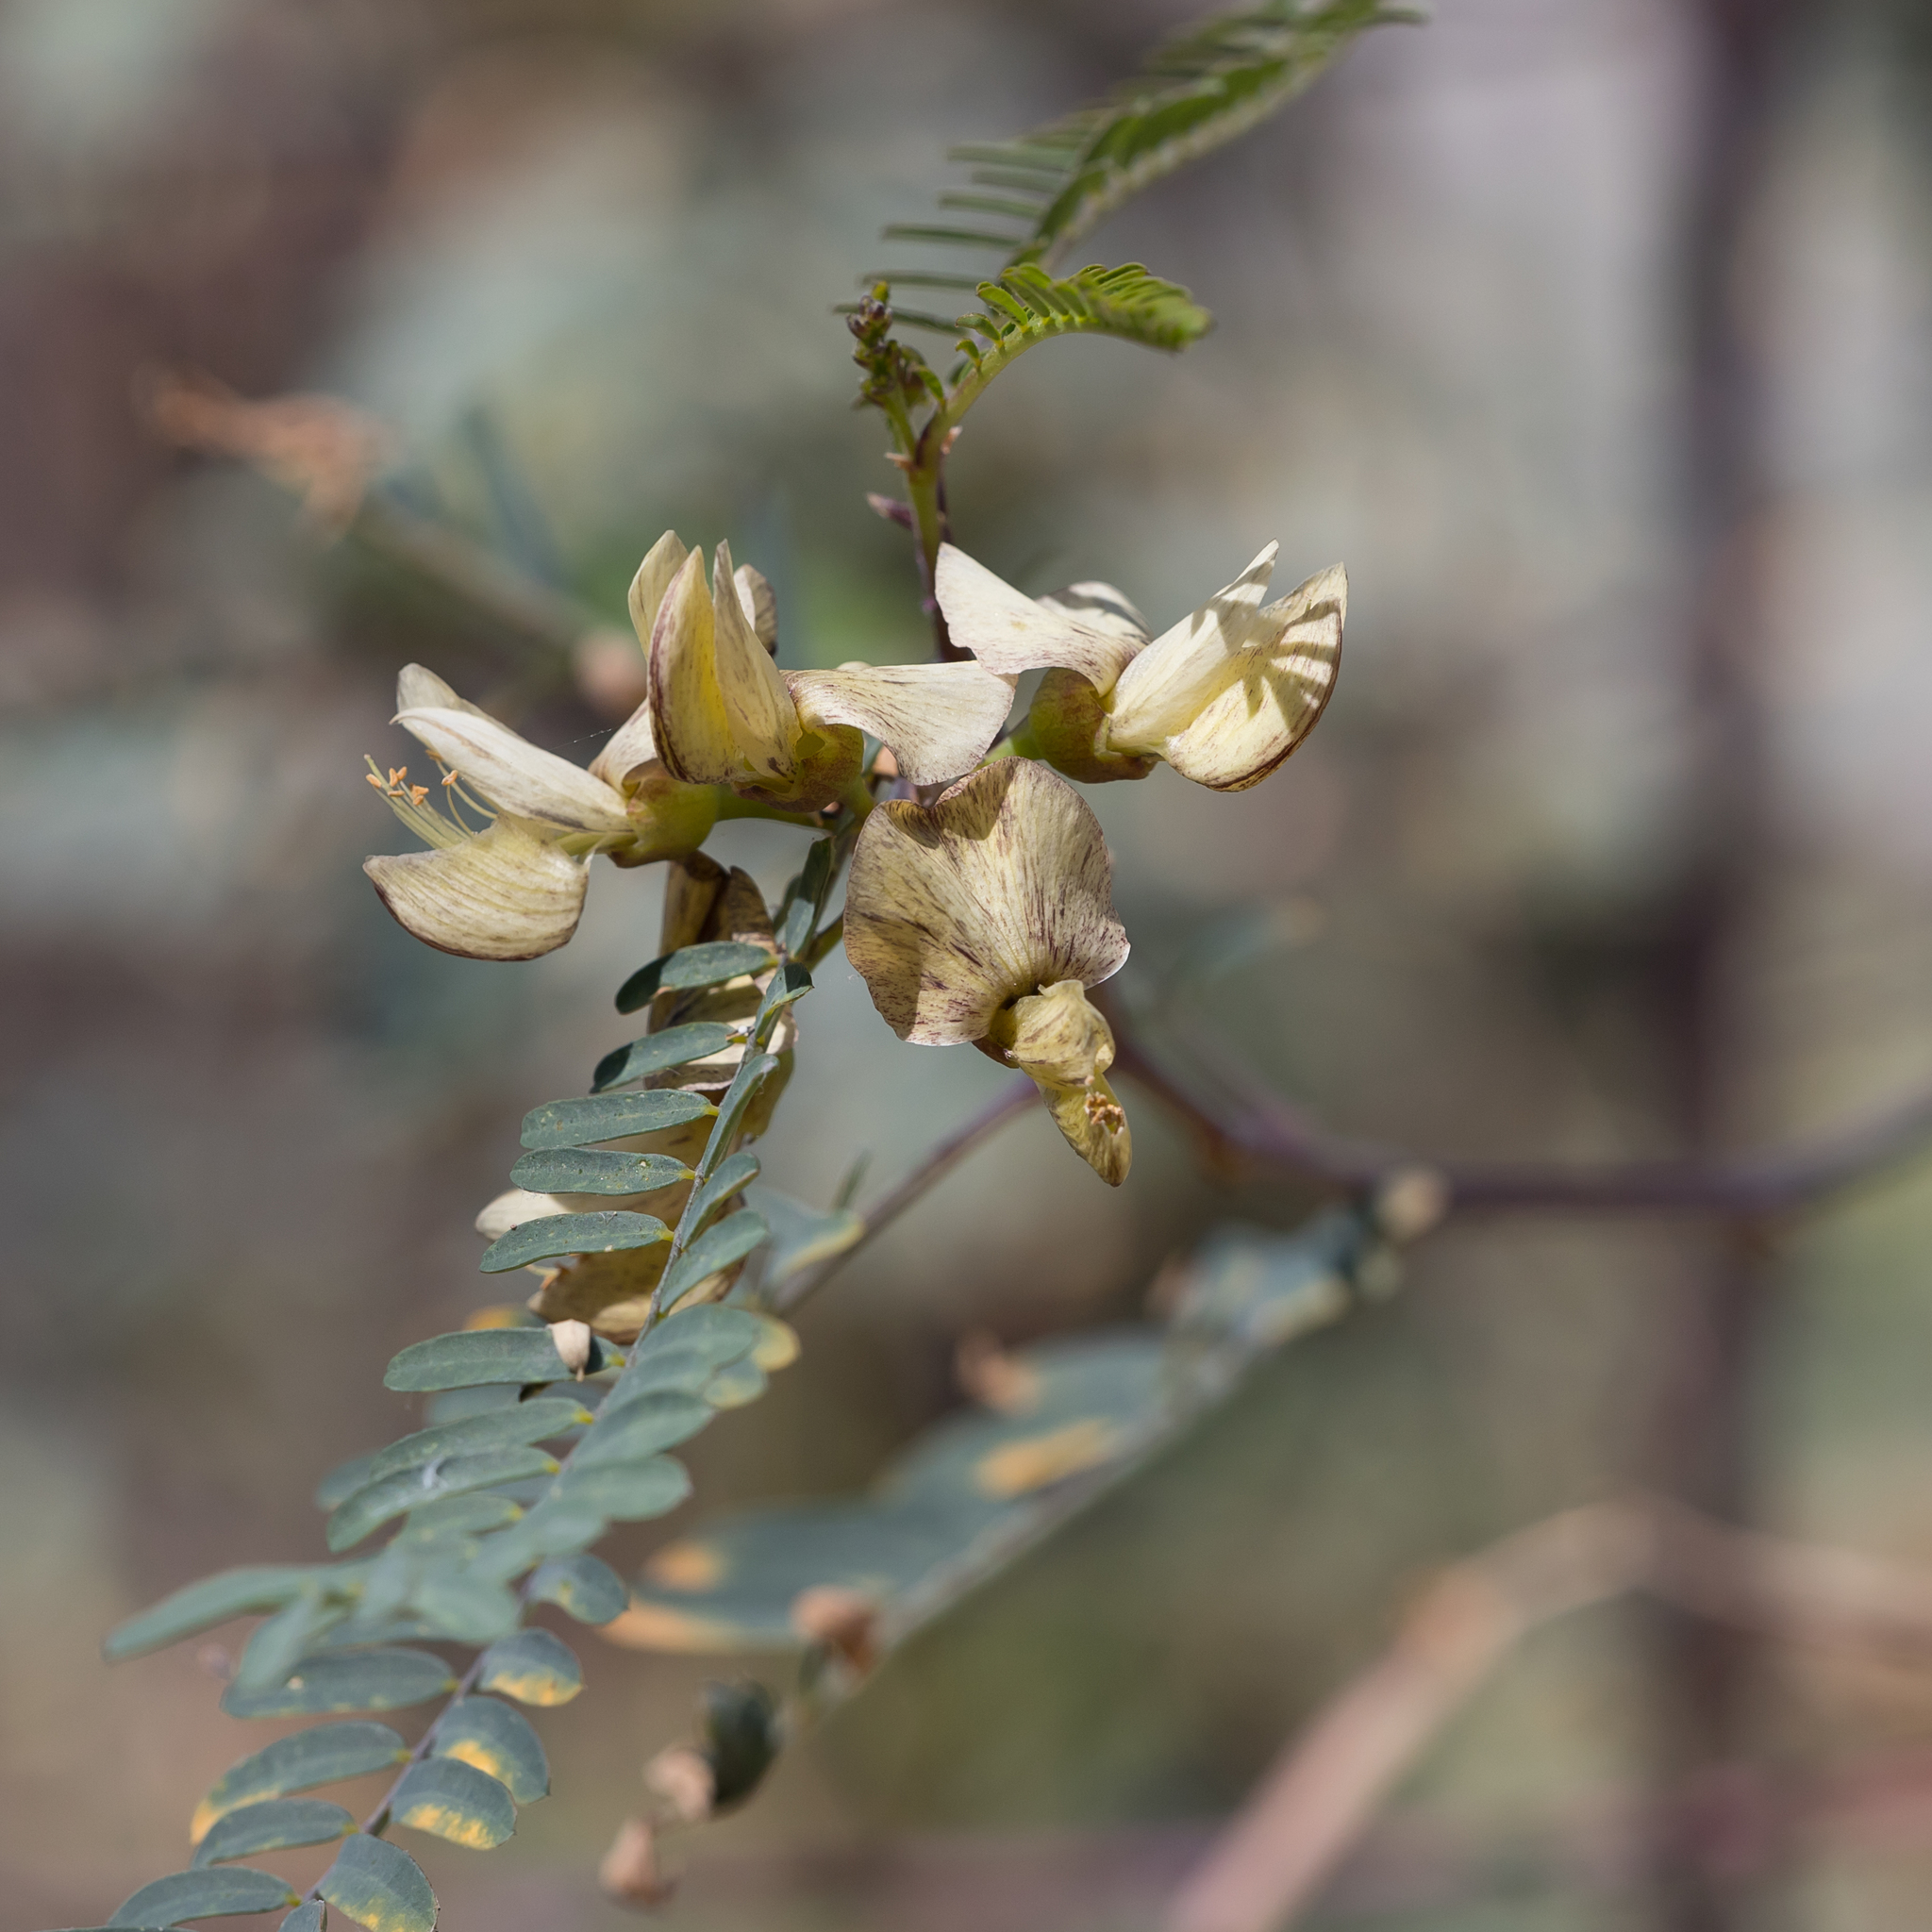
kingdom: Plantae
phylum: Tracheophyta
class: Magnoliopsida
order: Fabales
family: Fabaceae
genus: Sesbania
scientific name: Sesbania benthamiana
